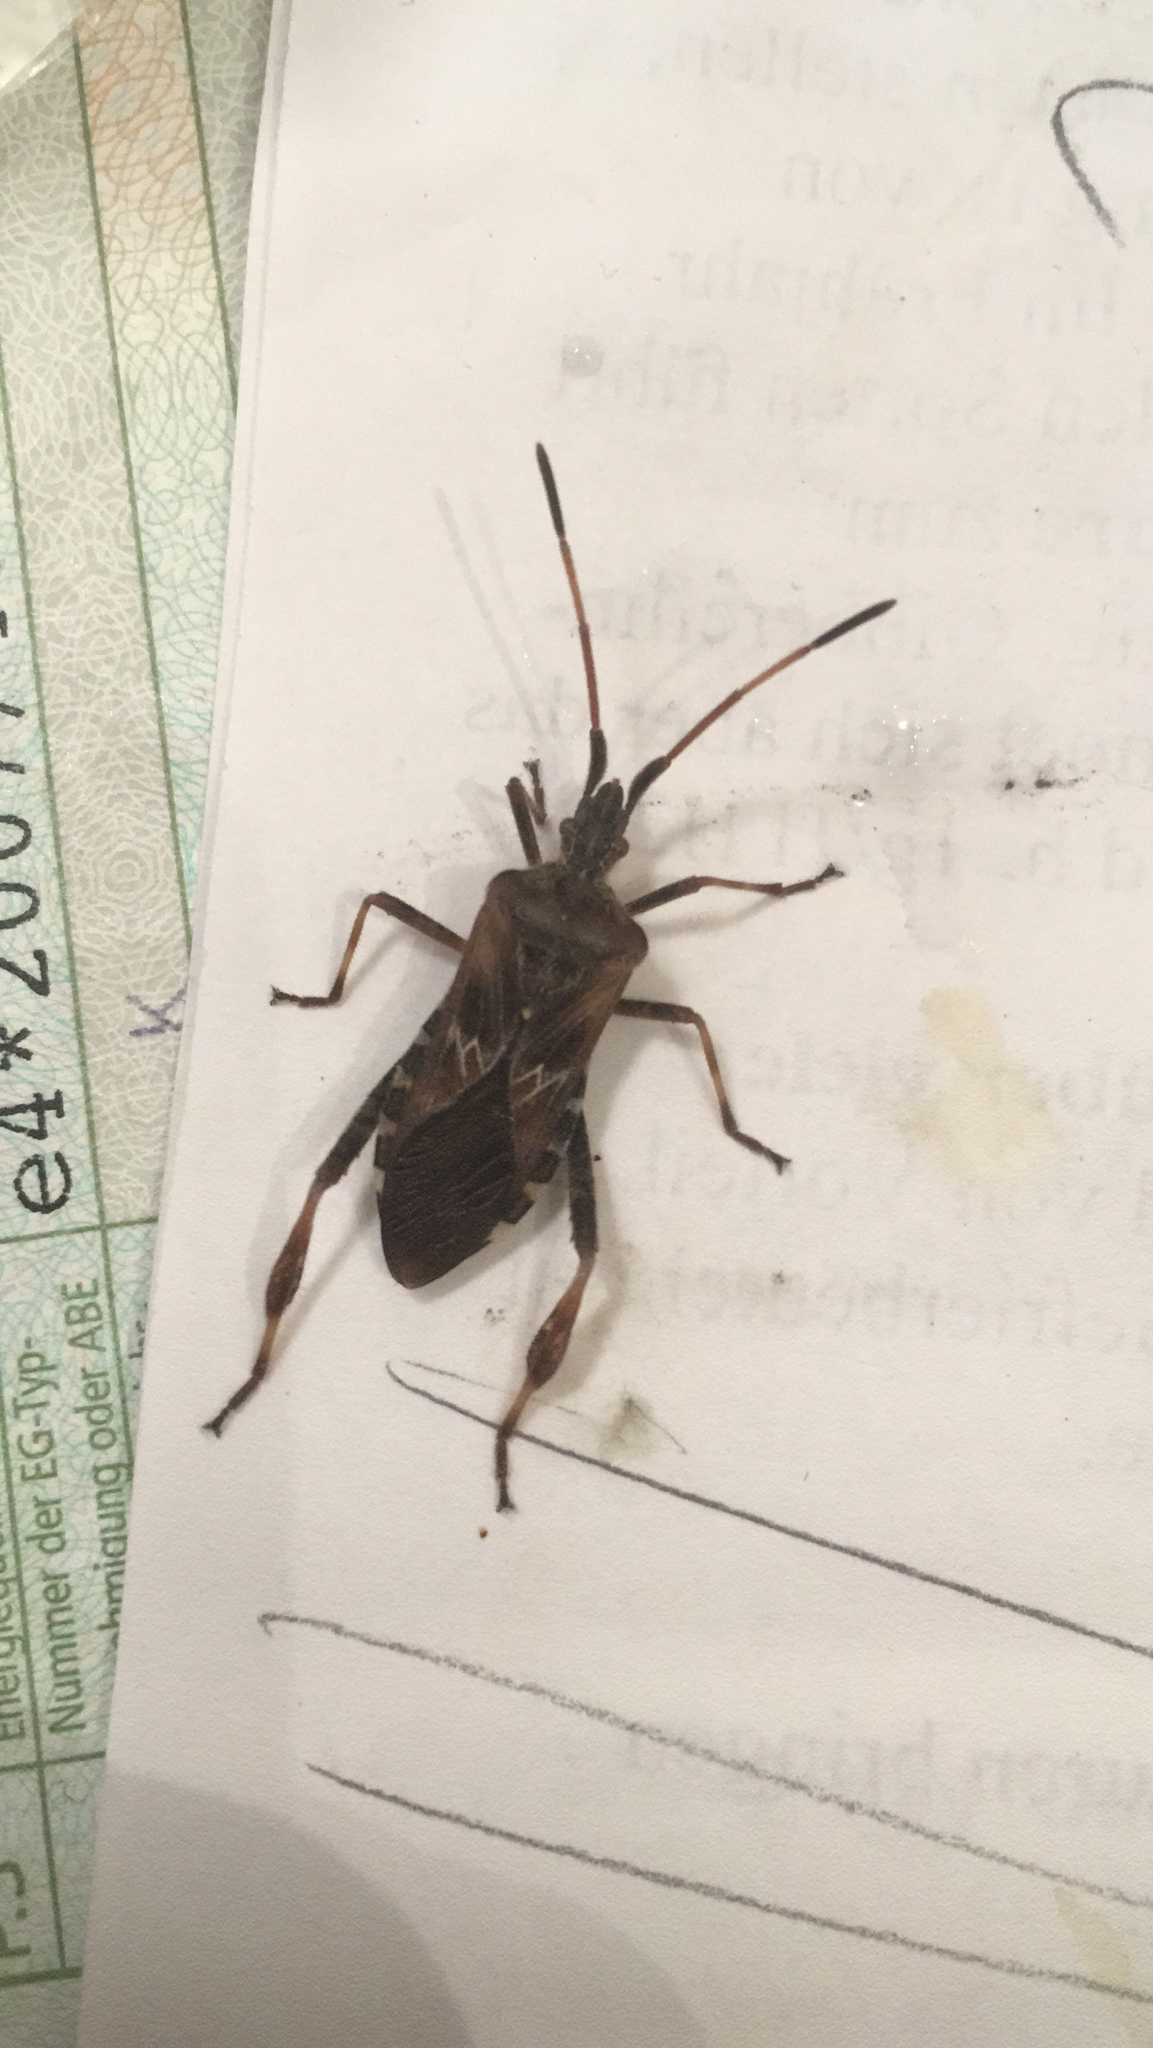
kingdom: Animalia
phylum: Arthropoda
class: Insecta
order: Hemiptera
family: Coreidae
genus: Leptoglossus
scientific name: Leptoglossus occidentalis
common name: Western conifer-seed bug
